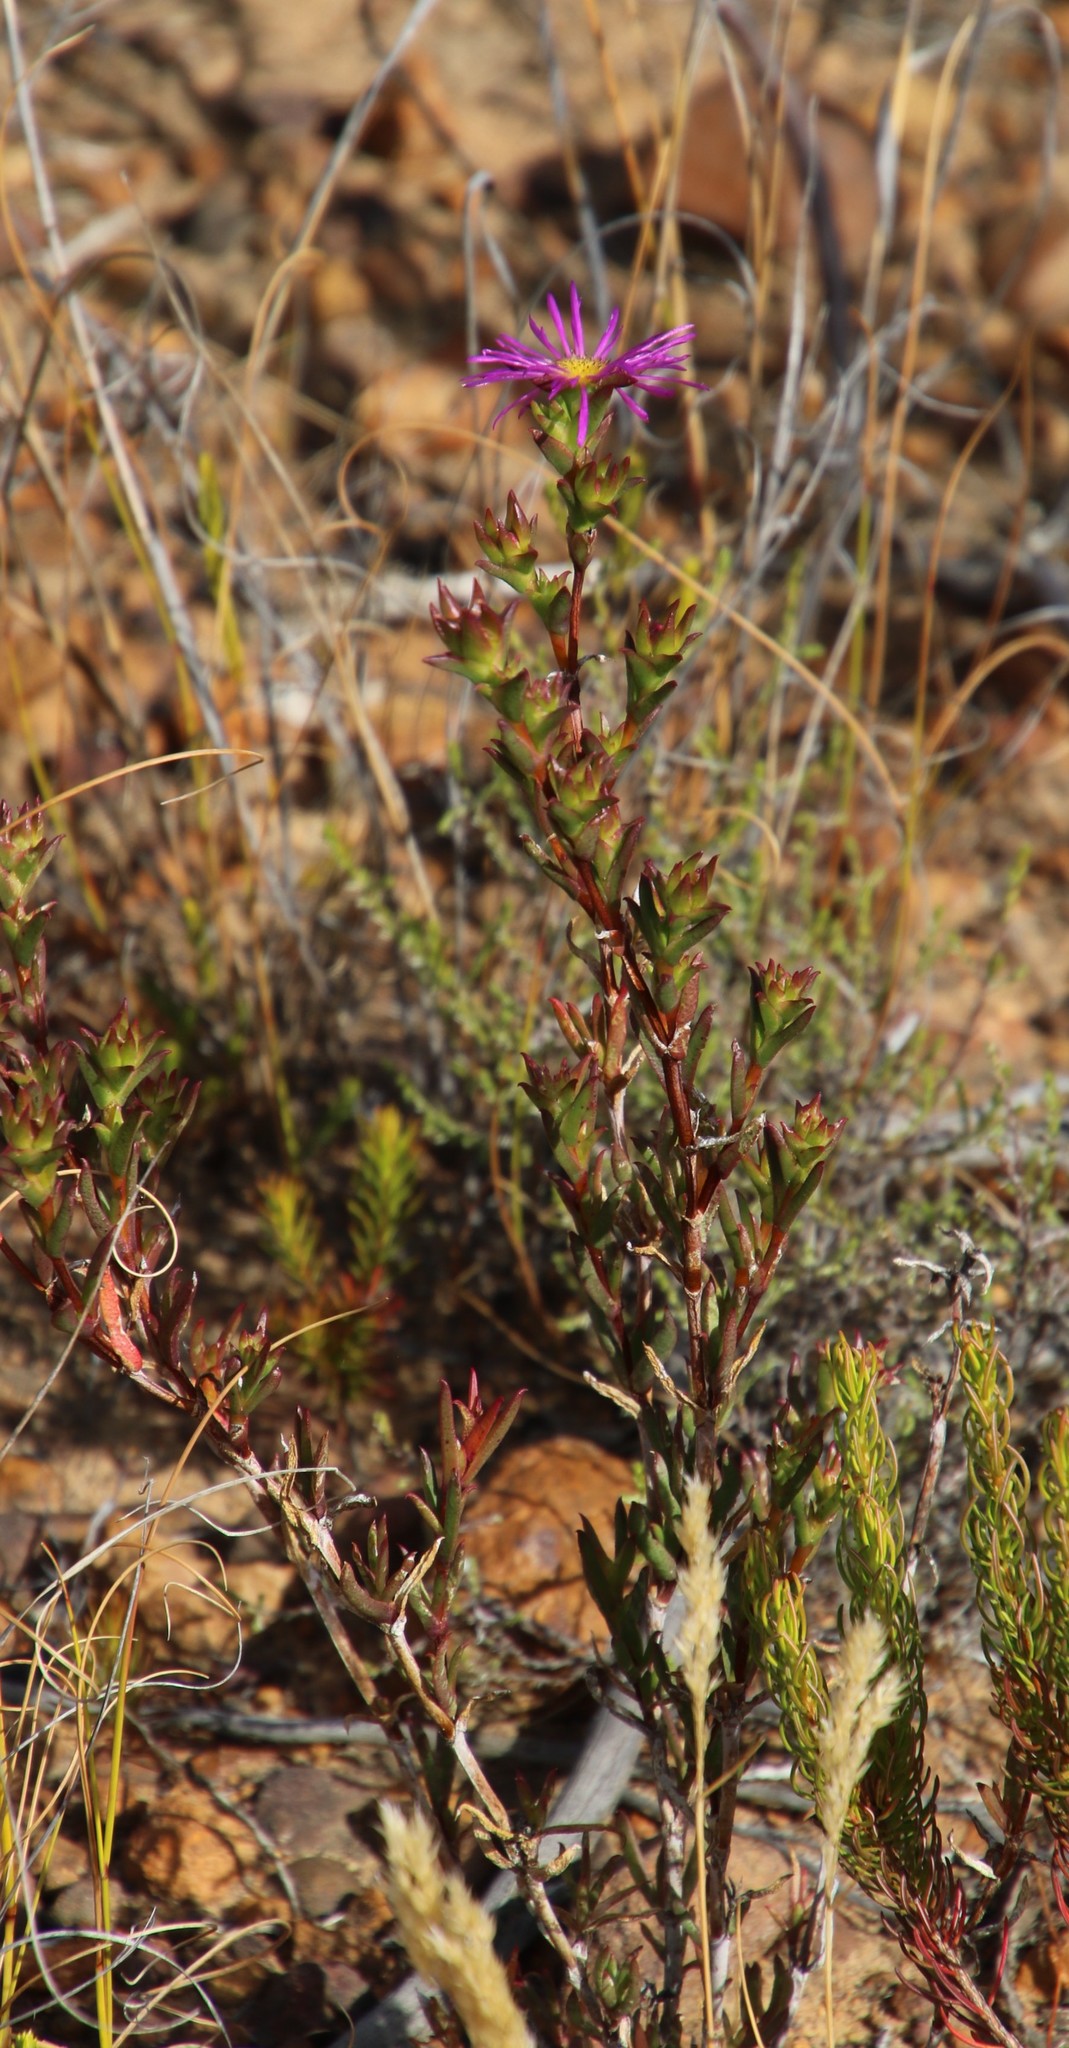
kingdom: Plantae
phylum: Tracheophyta
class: Magnoliopsida
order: Caryophyllales
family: Aizoaceae
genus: Erepsia
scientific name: Erepsia anceps
